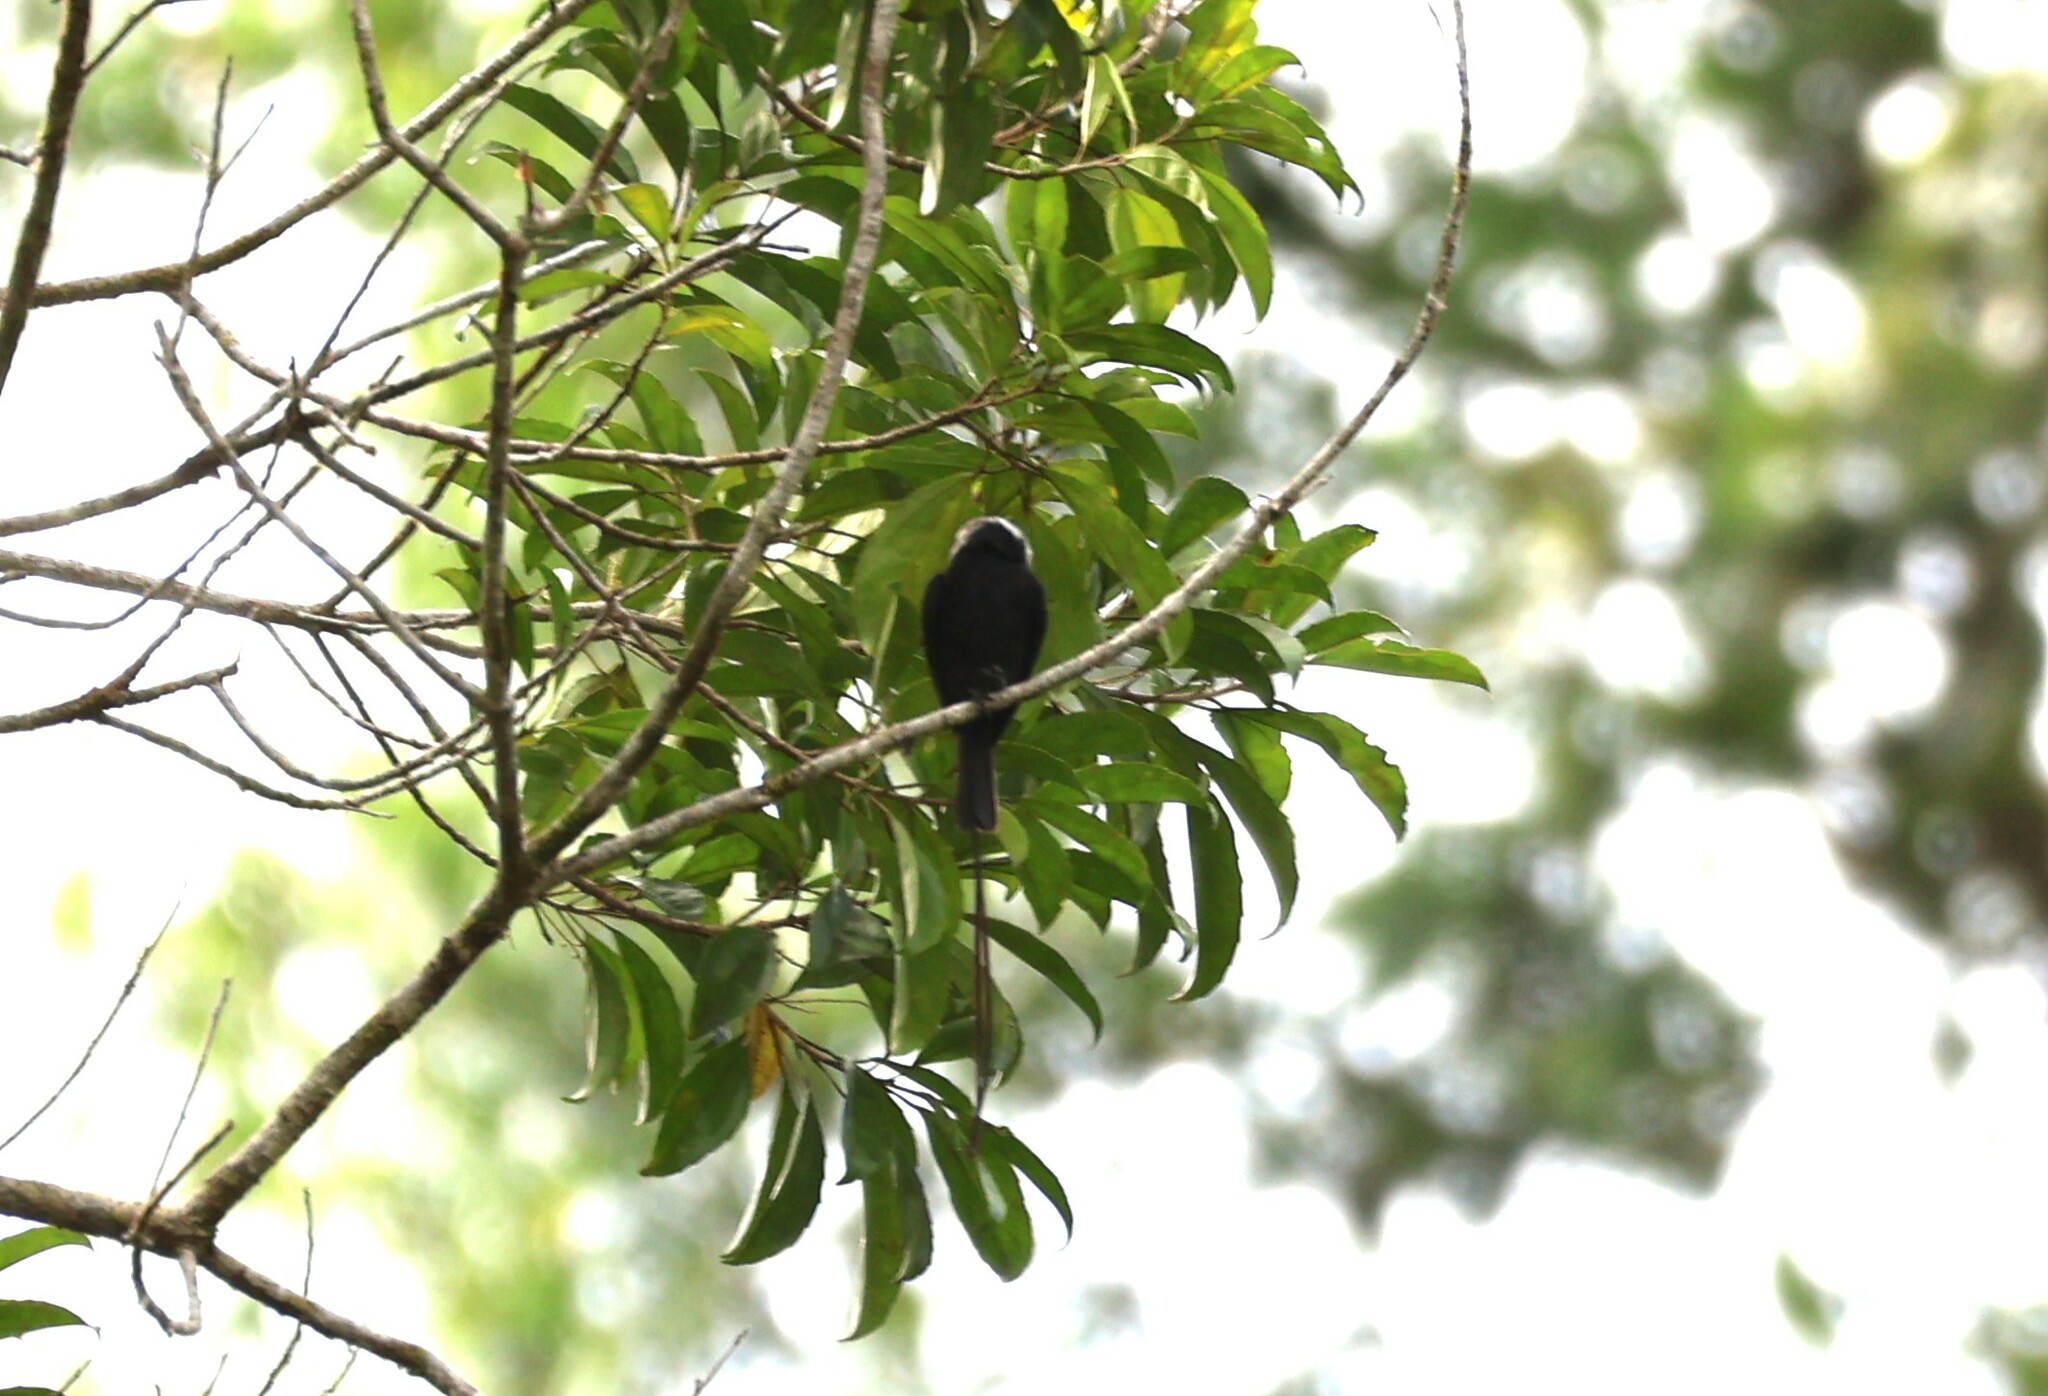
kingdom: Animalia
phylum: Chordata
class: Aves
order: Passeriformes
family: Tyrannidae
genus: Colonia
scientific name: Colonia colonus
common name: Long-tailed tyrant
